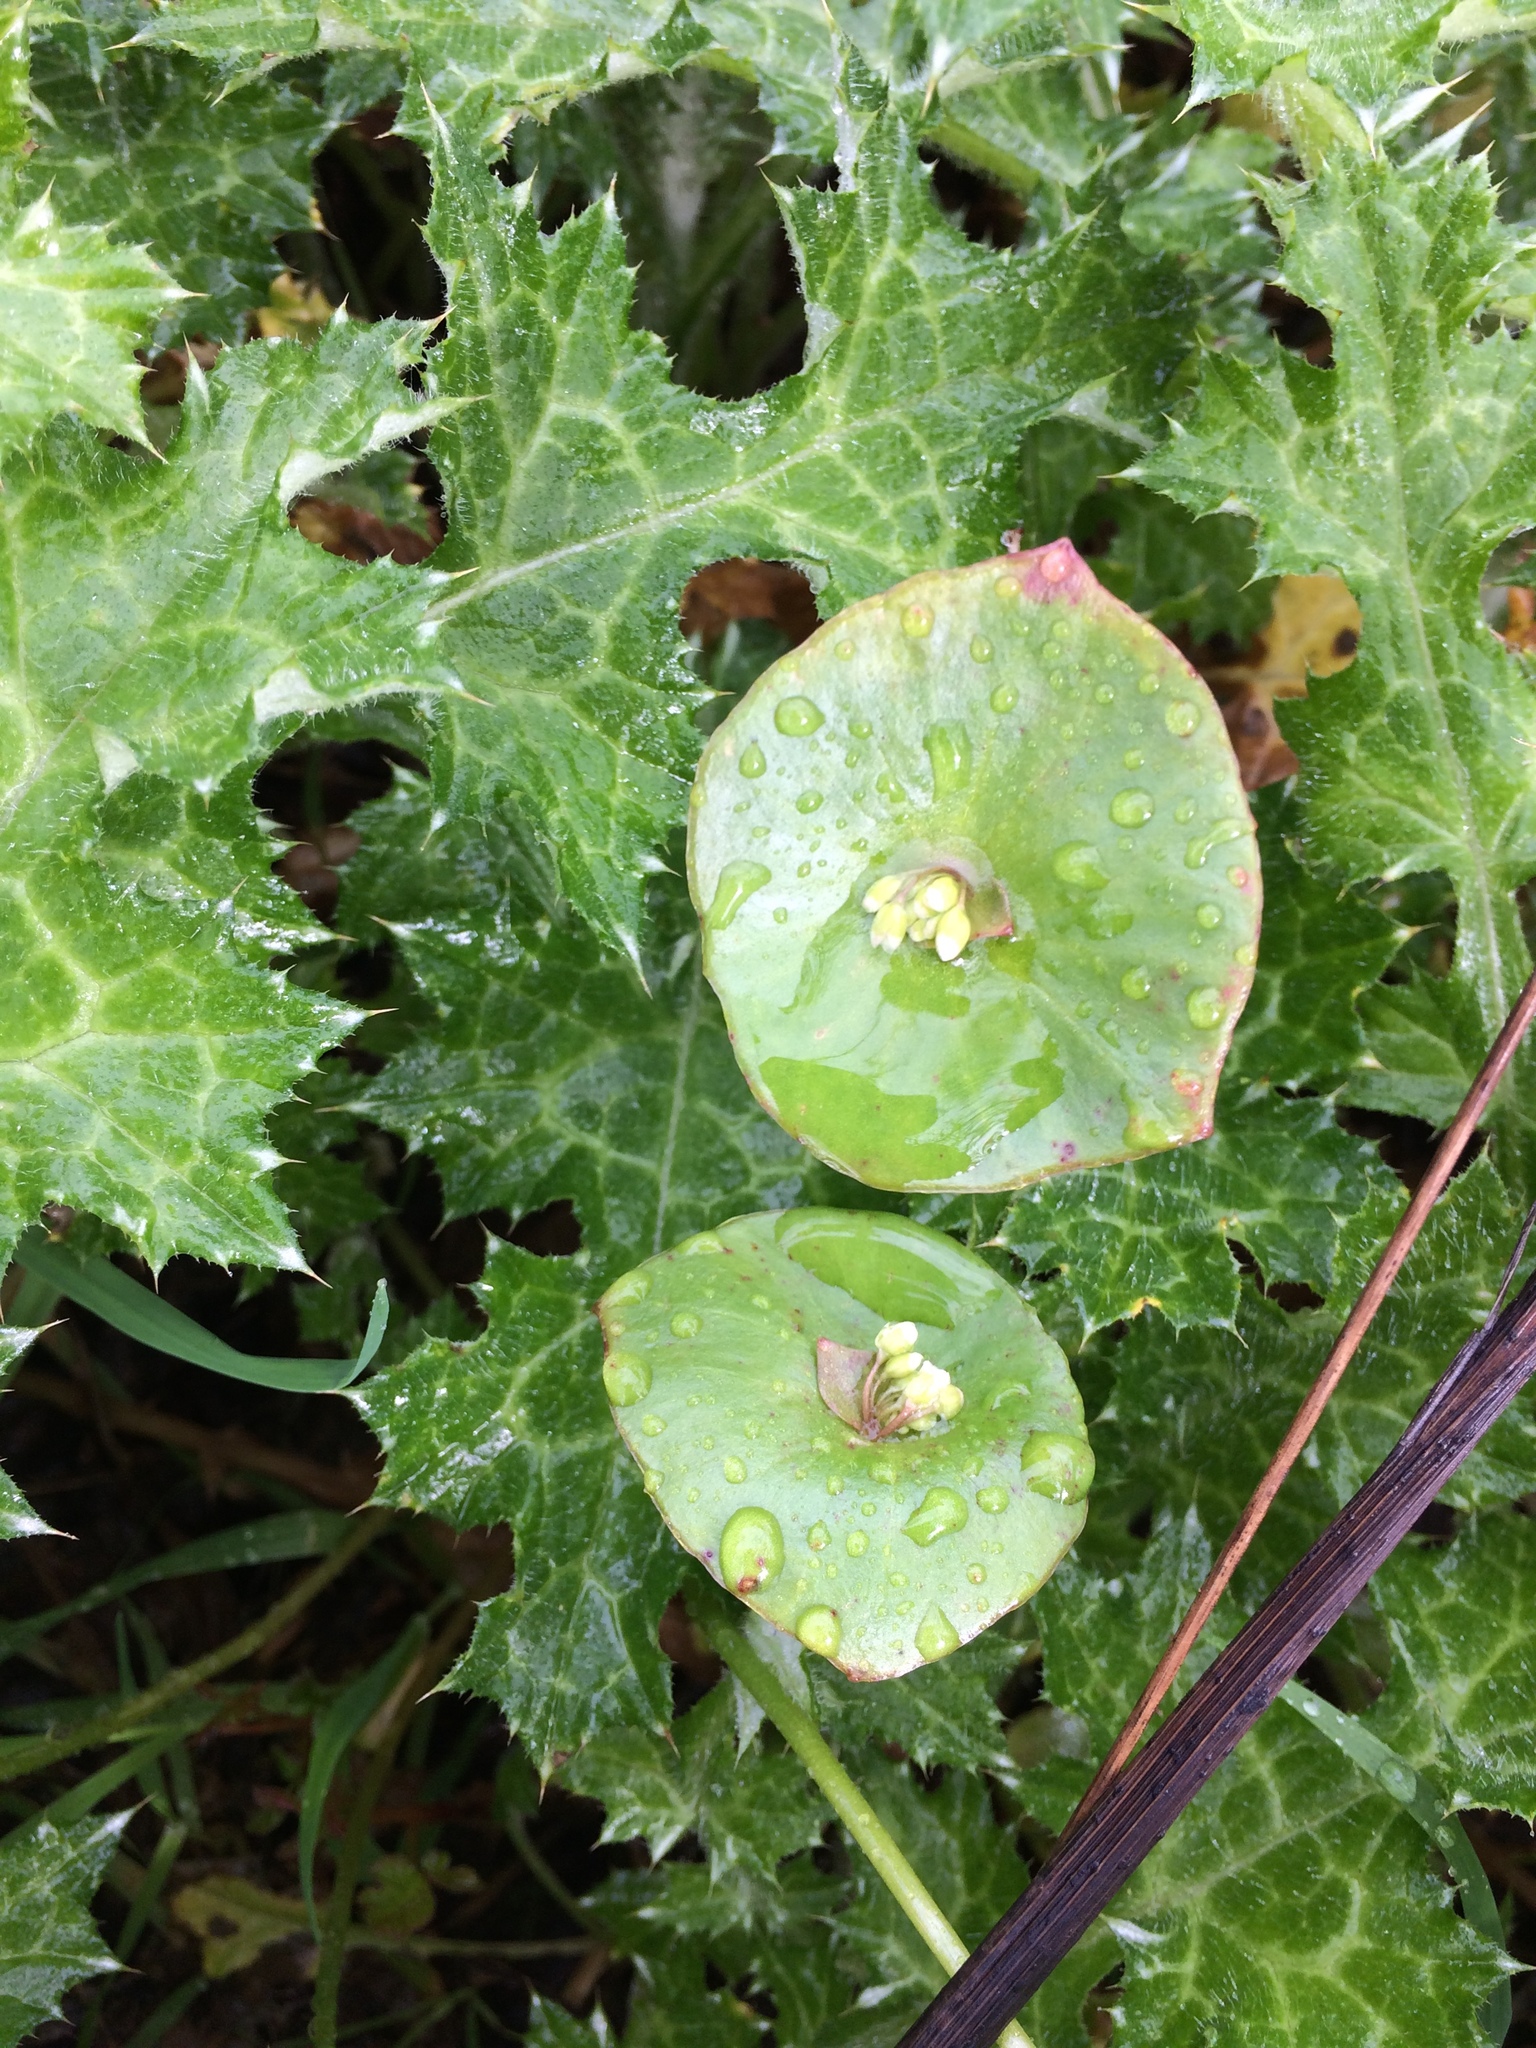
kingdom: Plantae
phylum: Tracheophyta
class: Magnoliopsida
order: Caryophyllales
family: Montiaceae
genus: Claytonia
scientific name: Claytonia perfoliata
